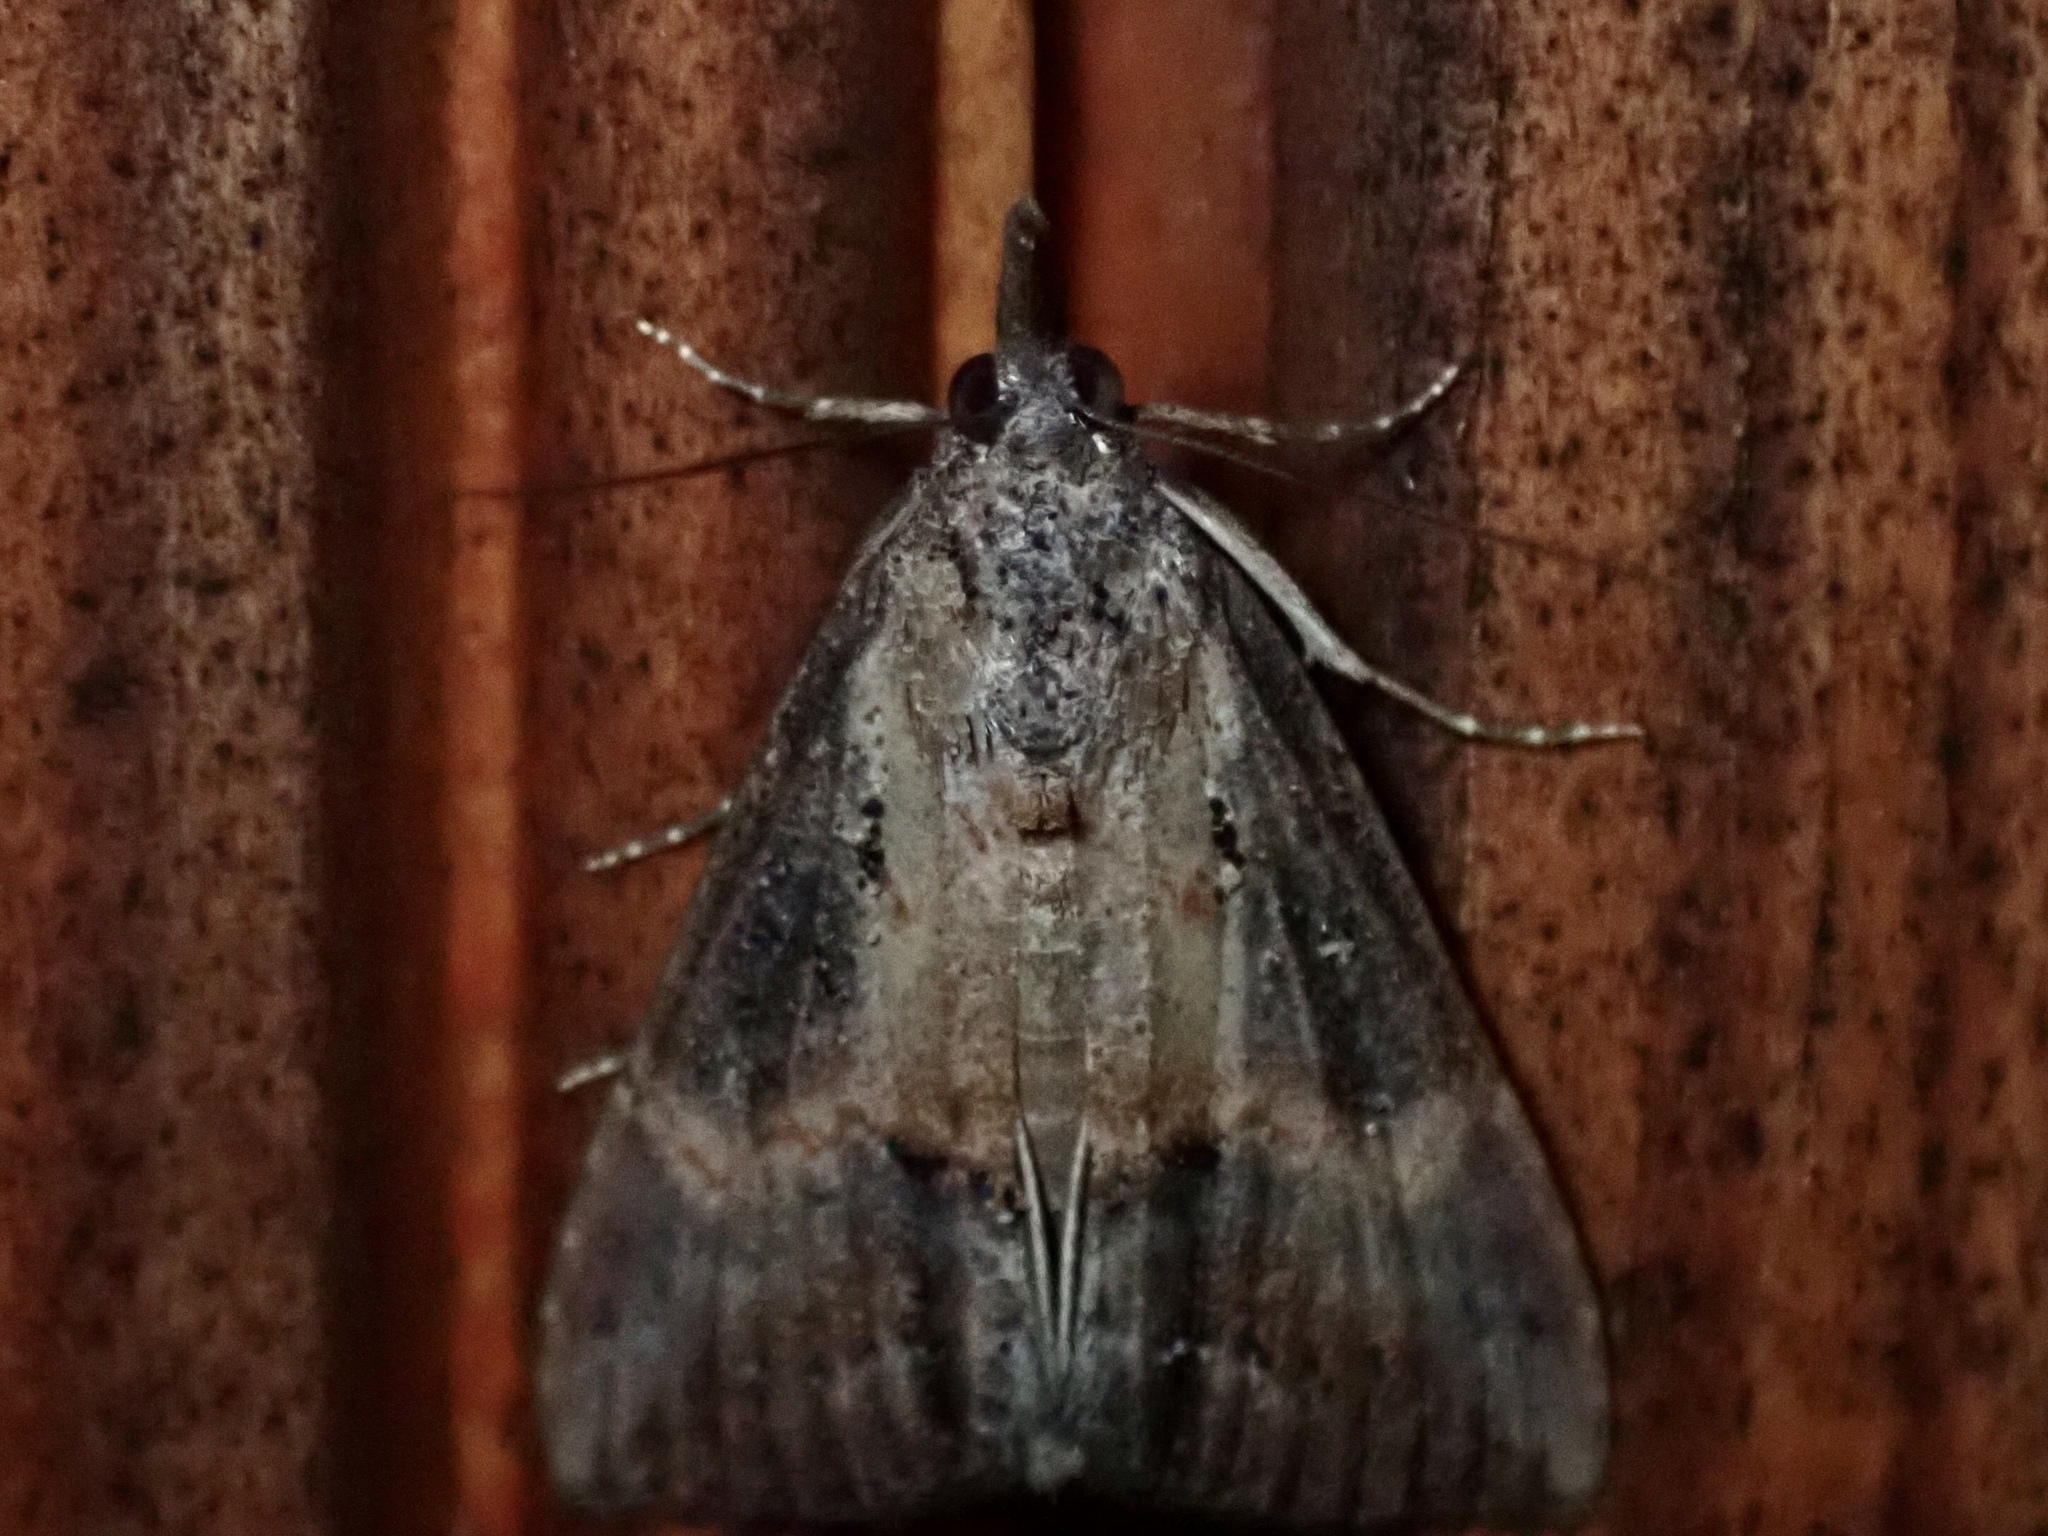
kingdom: Animalia
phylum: Arthropoda
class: Insecta
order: Lepidoptera
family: Erebidae
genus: Hypena
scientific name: Hypena scabra
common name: Green cloverworm
